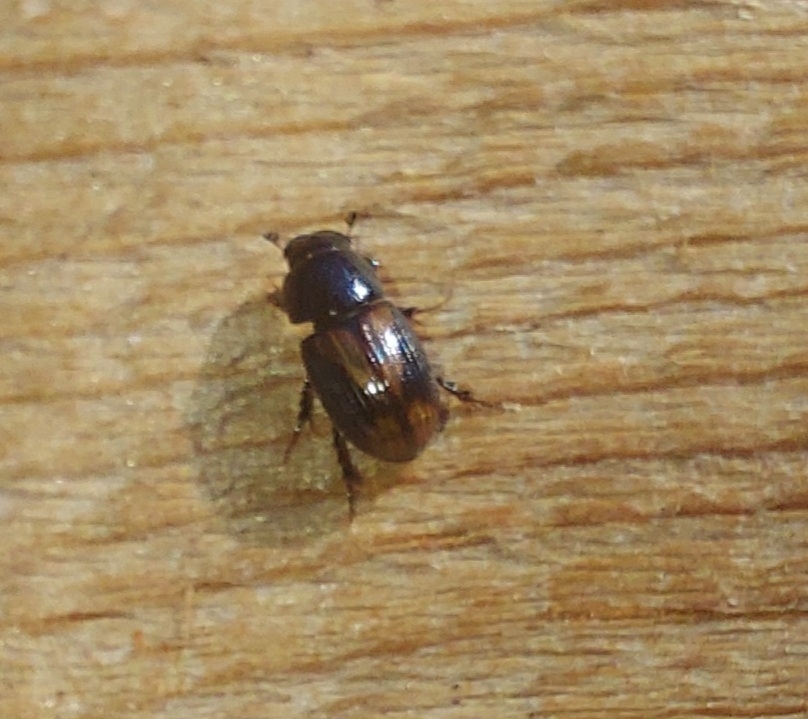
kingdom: Animalia
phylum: Arthropoda
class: Insecta
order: Coleoptera
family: Scarabaeidae
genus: Phaeaphodius
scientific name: Phaeaphodius rectus
